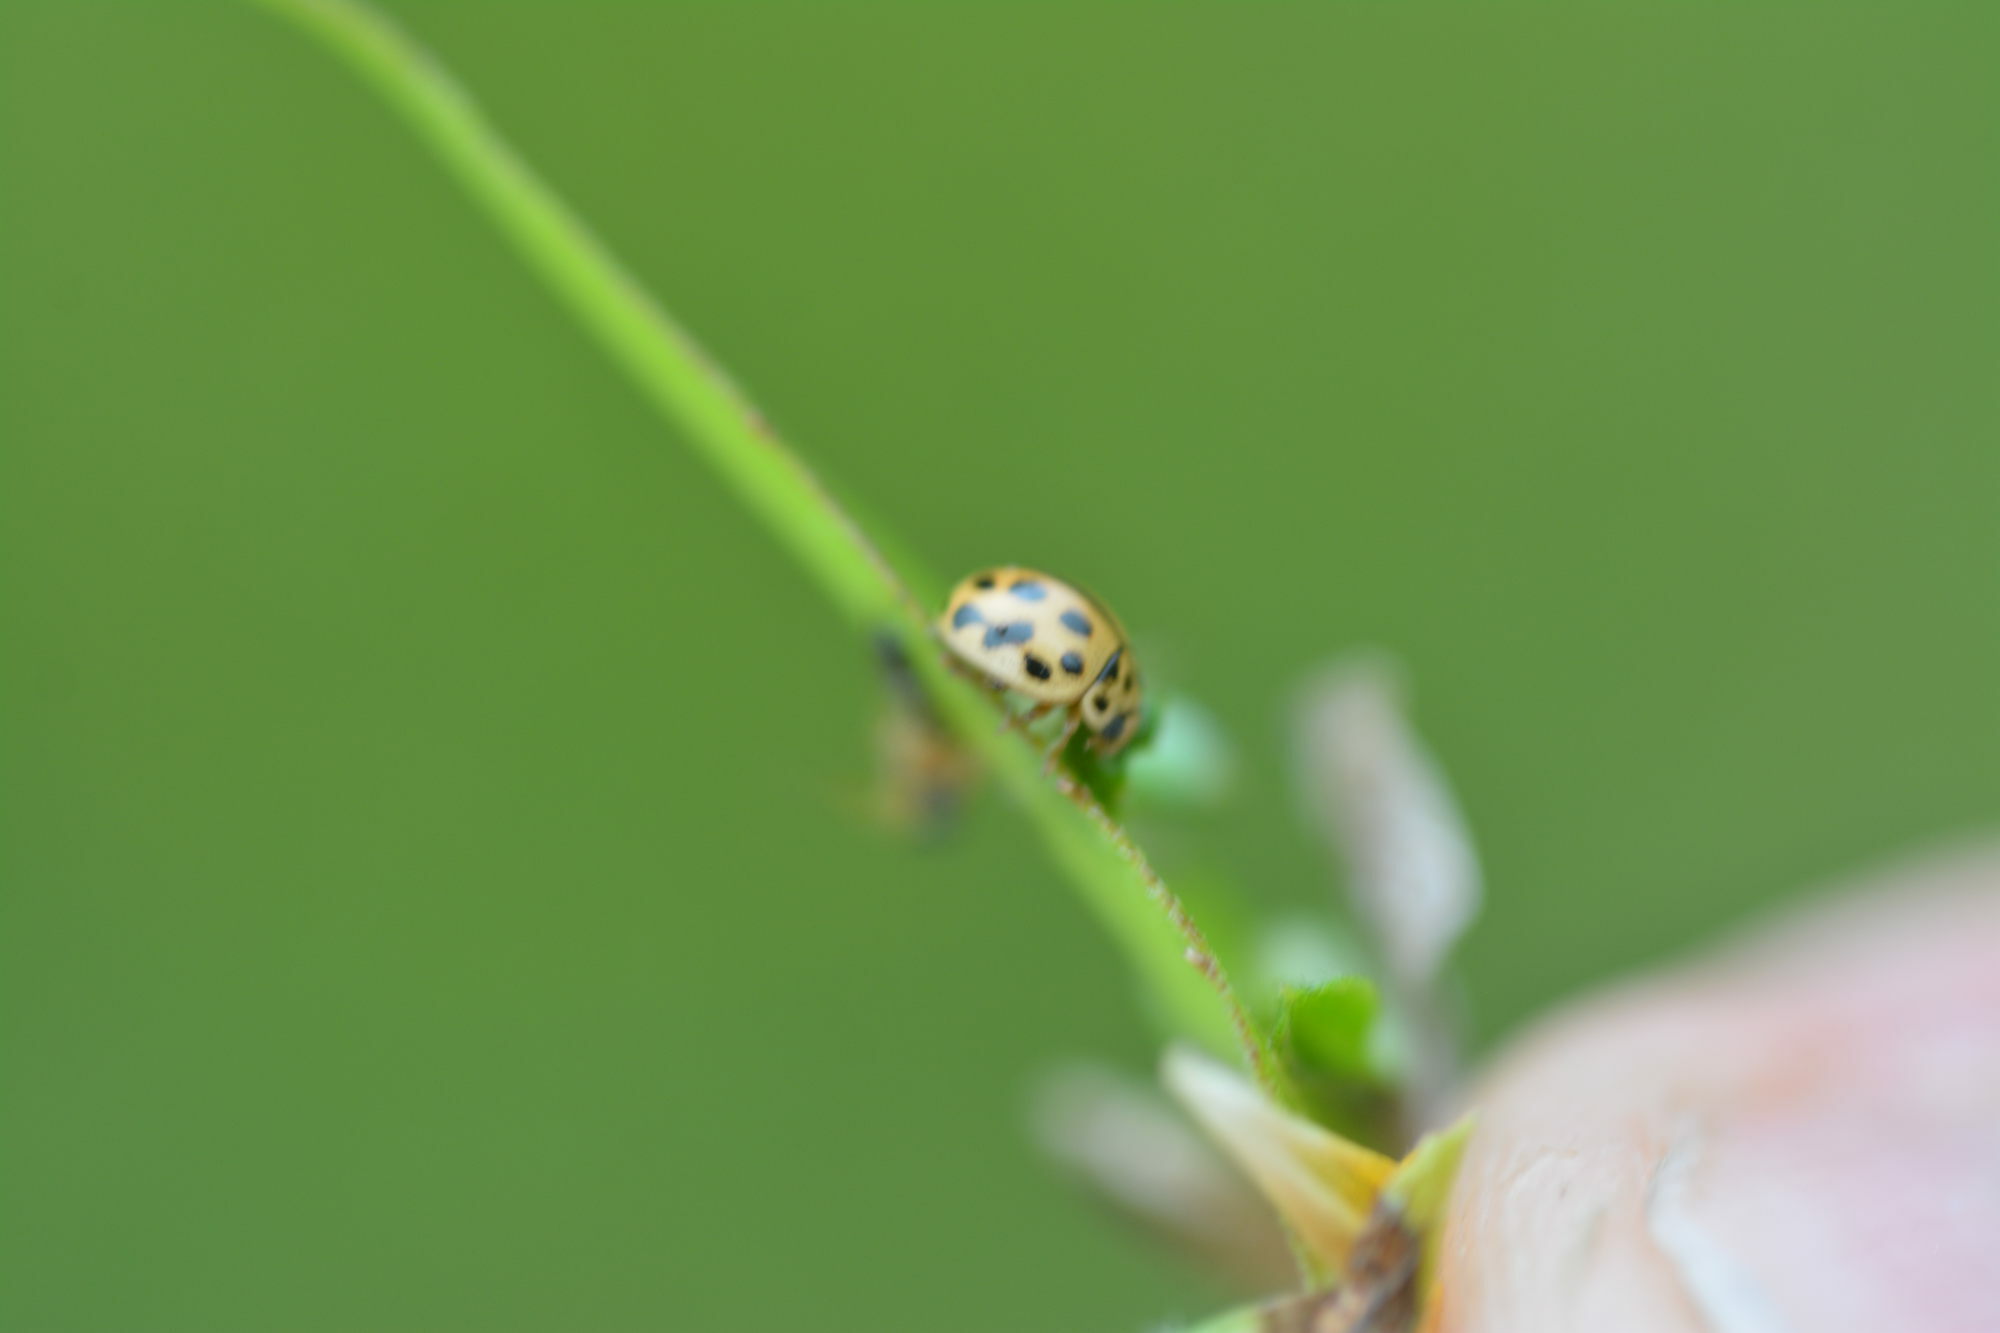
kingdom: Animalia
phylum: Arthropoda
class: Insecta
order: Coleoptera
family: Coccinellidae
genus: Tytthaspis
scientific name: Tytthaspis sedecimpunctata
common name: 16-spot ladybird
